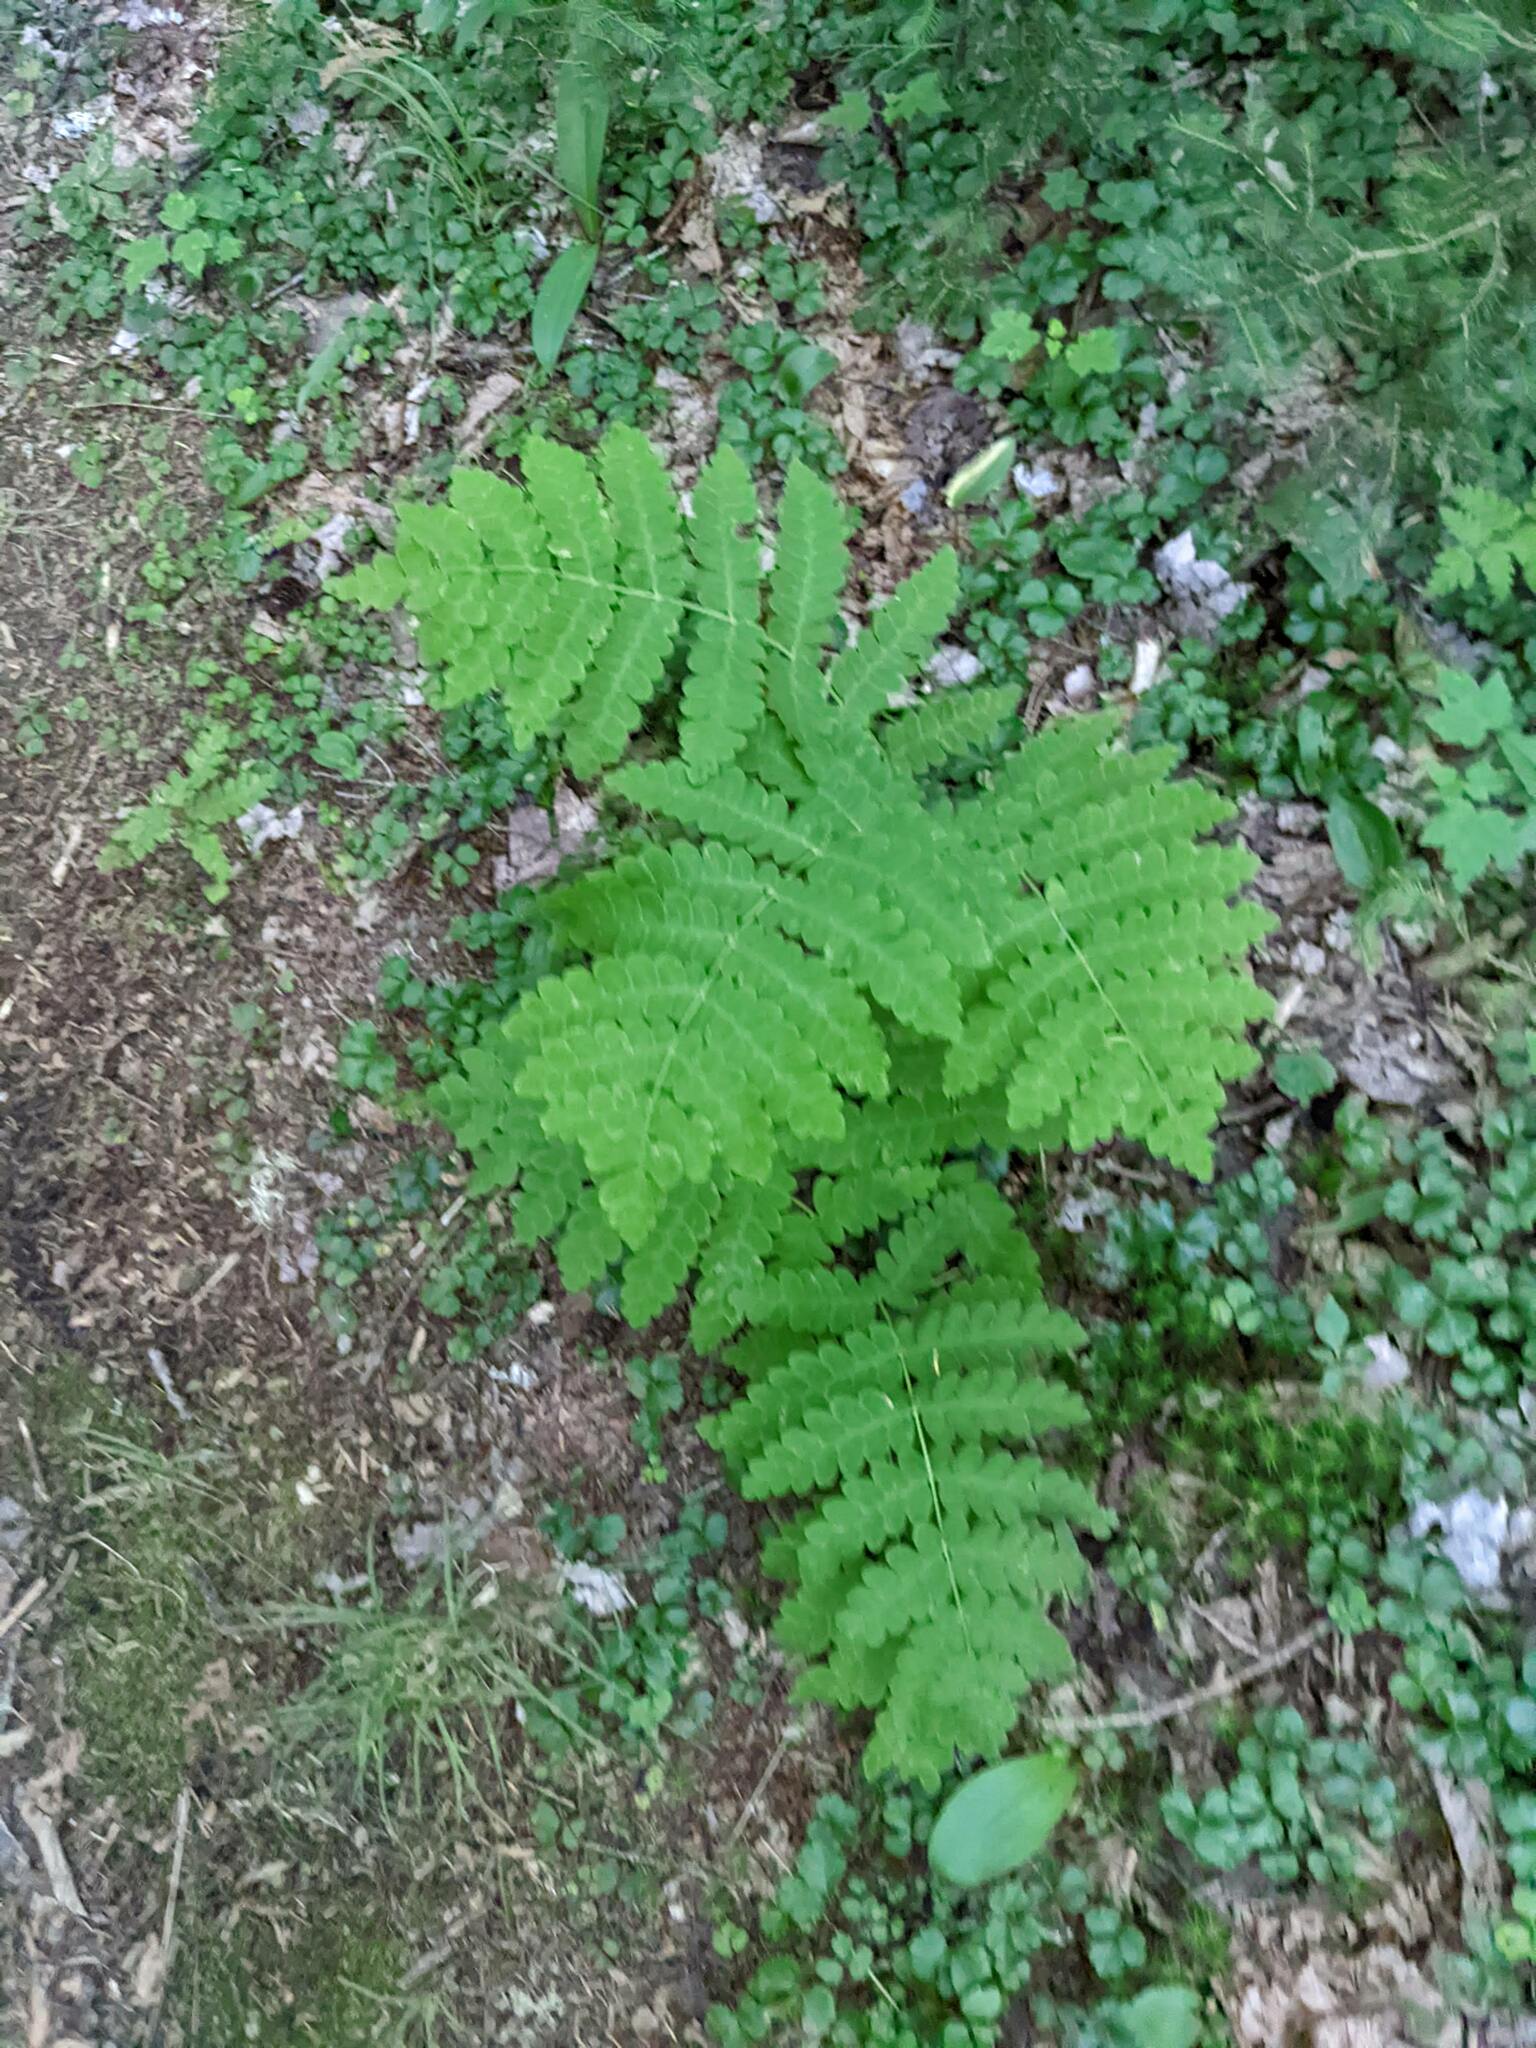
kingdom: Plantae
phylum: Tracheophyta
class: Polypodiopsida
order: Osmundales
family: Osmundaceae
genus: Claytosmunda
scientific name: Claytosmunda claytoniana
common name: Clayton's fern
